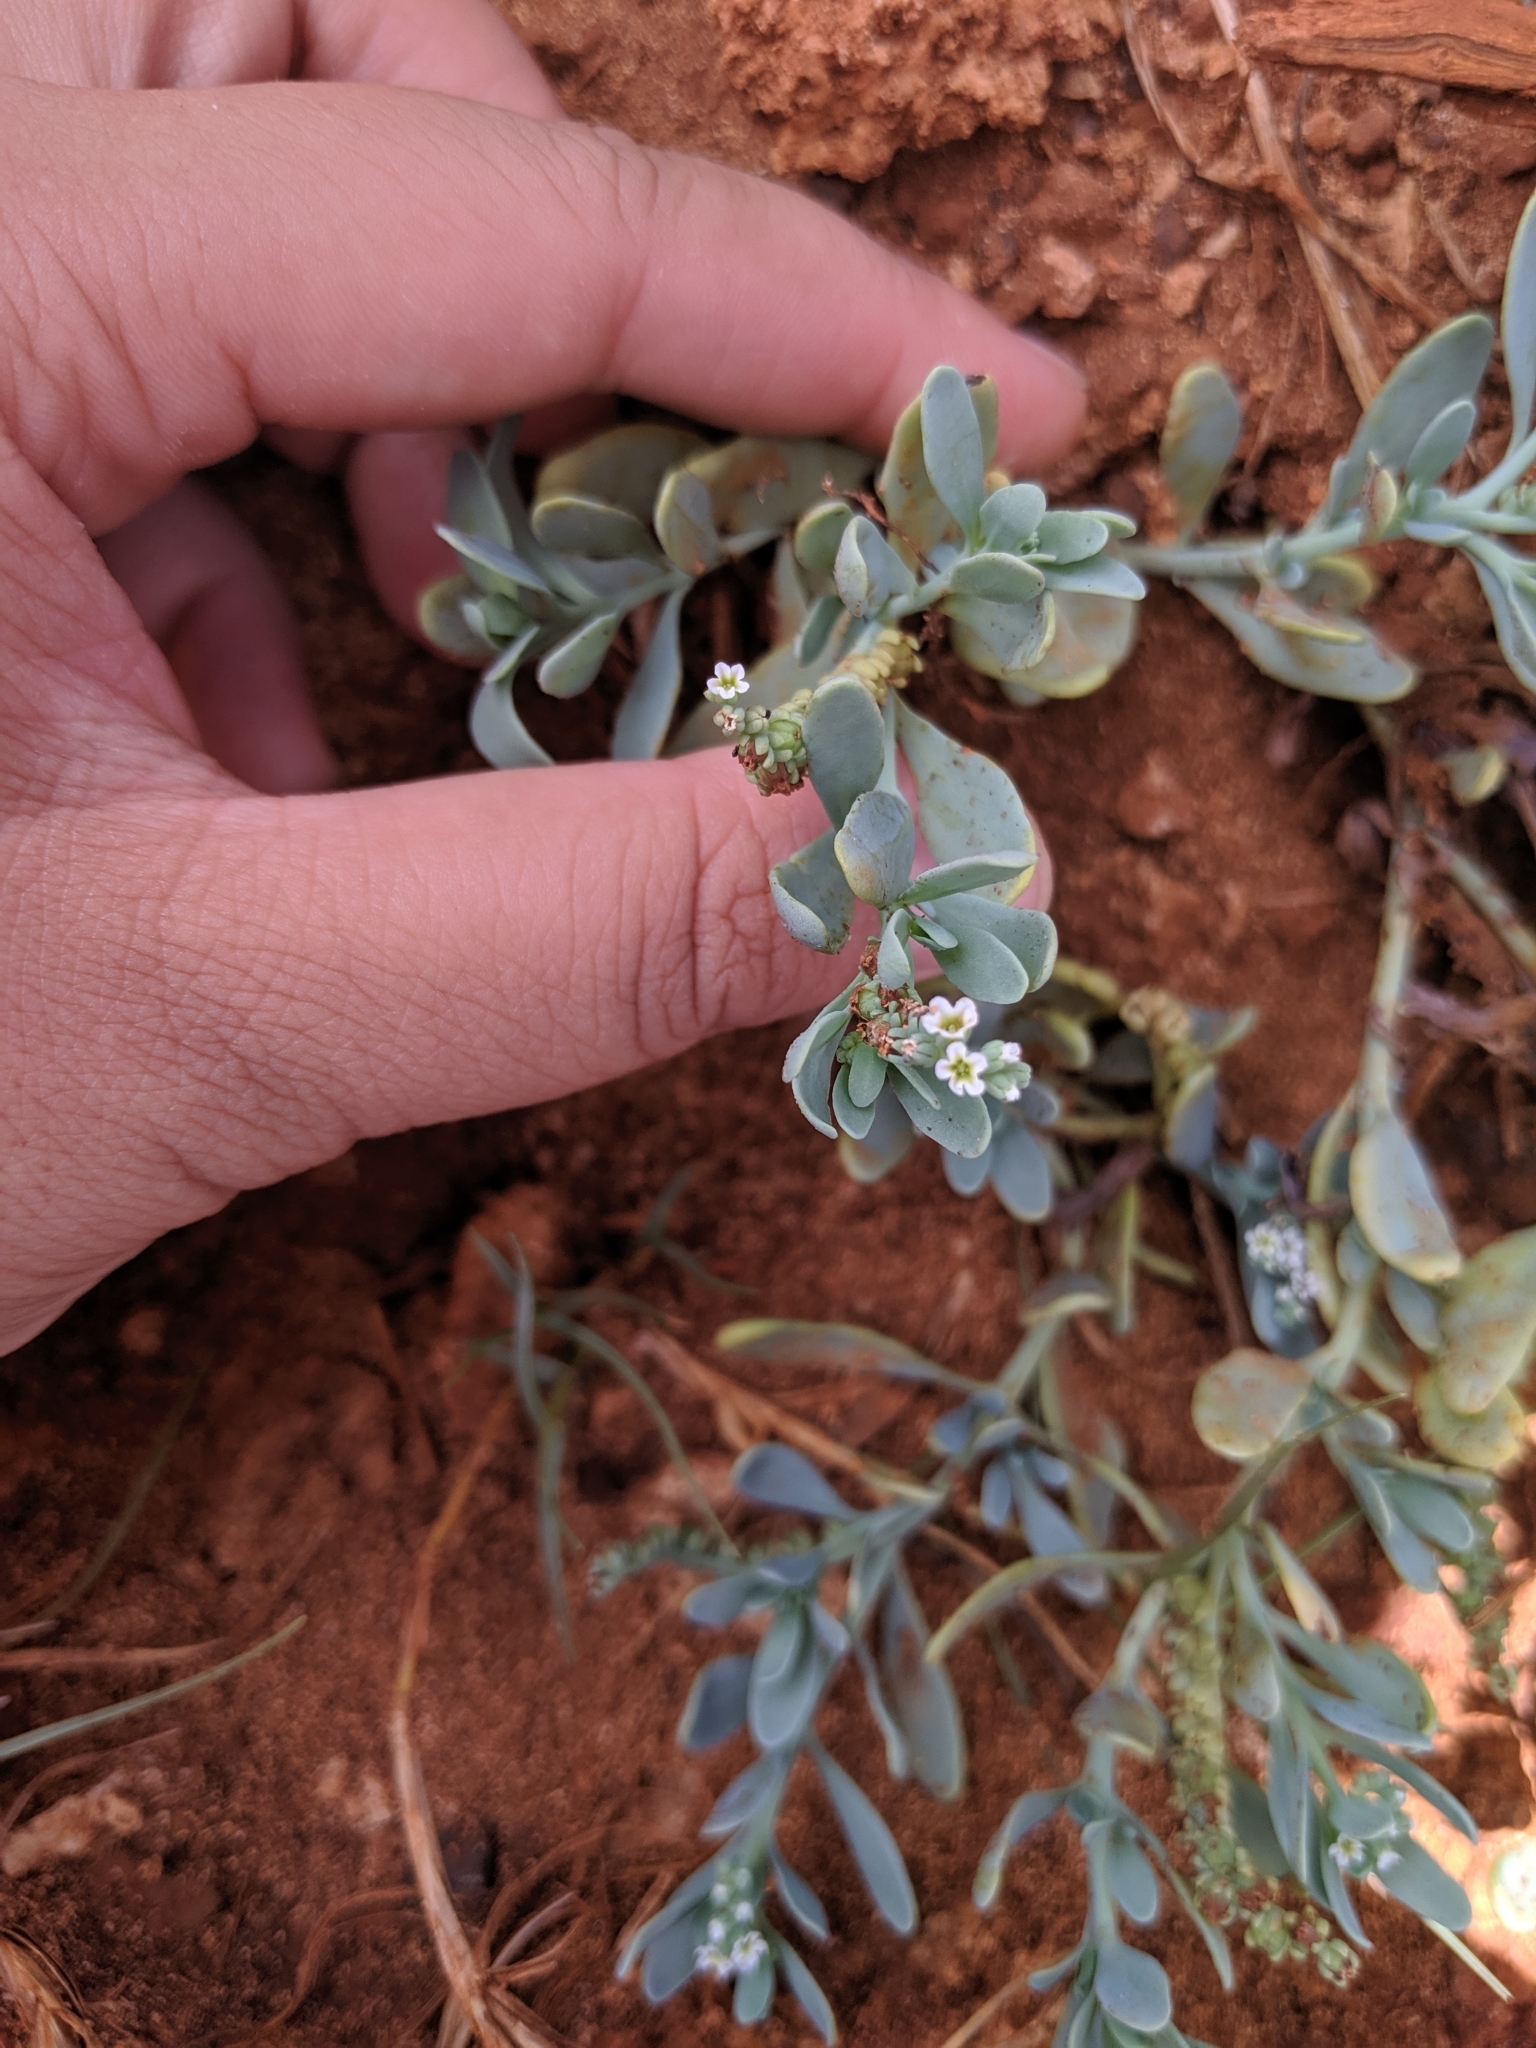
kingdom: Plantae
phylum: Tracheophyta
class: Magnoliopsida
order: Boraginales
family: Heliotropiaceae
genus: Heliotropium
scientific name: Heliotropium curassavicum
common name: Seaside heliotrope
